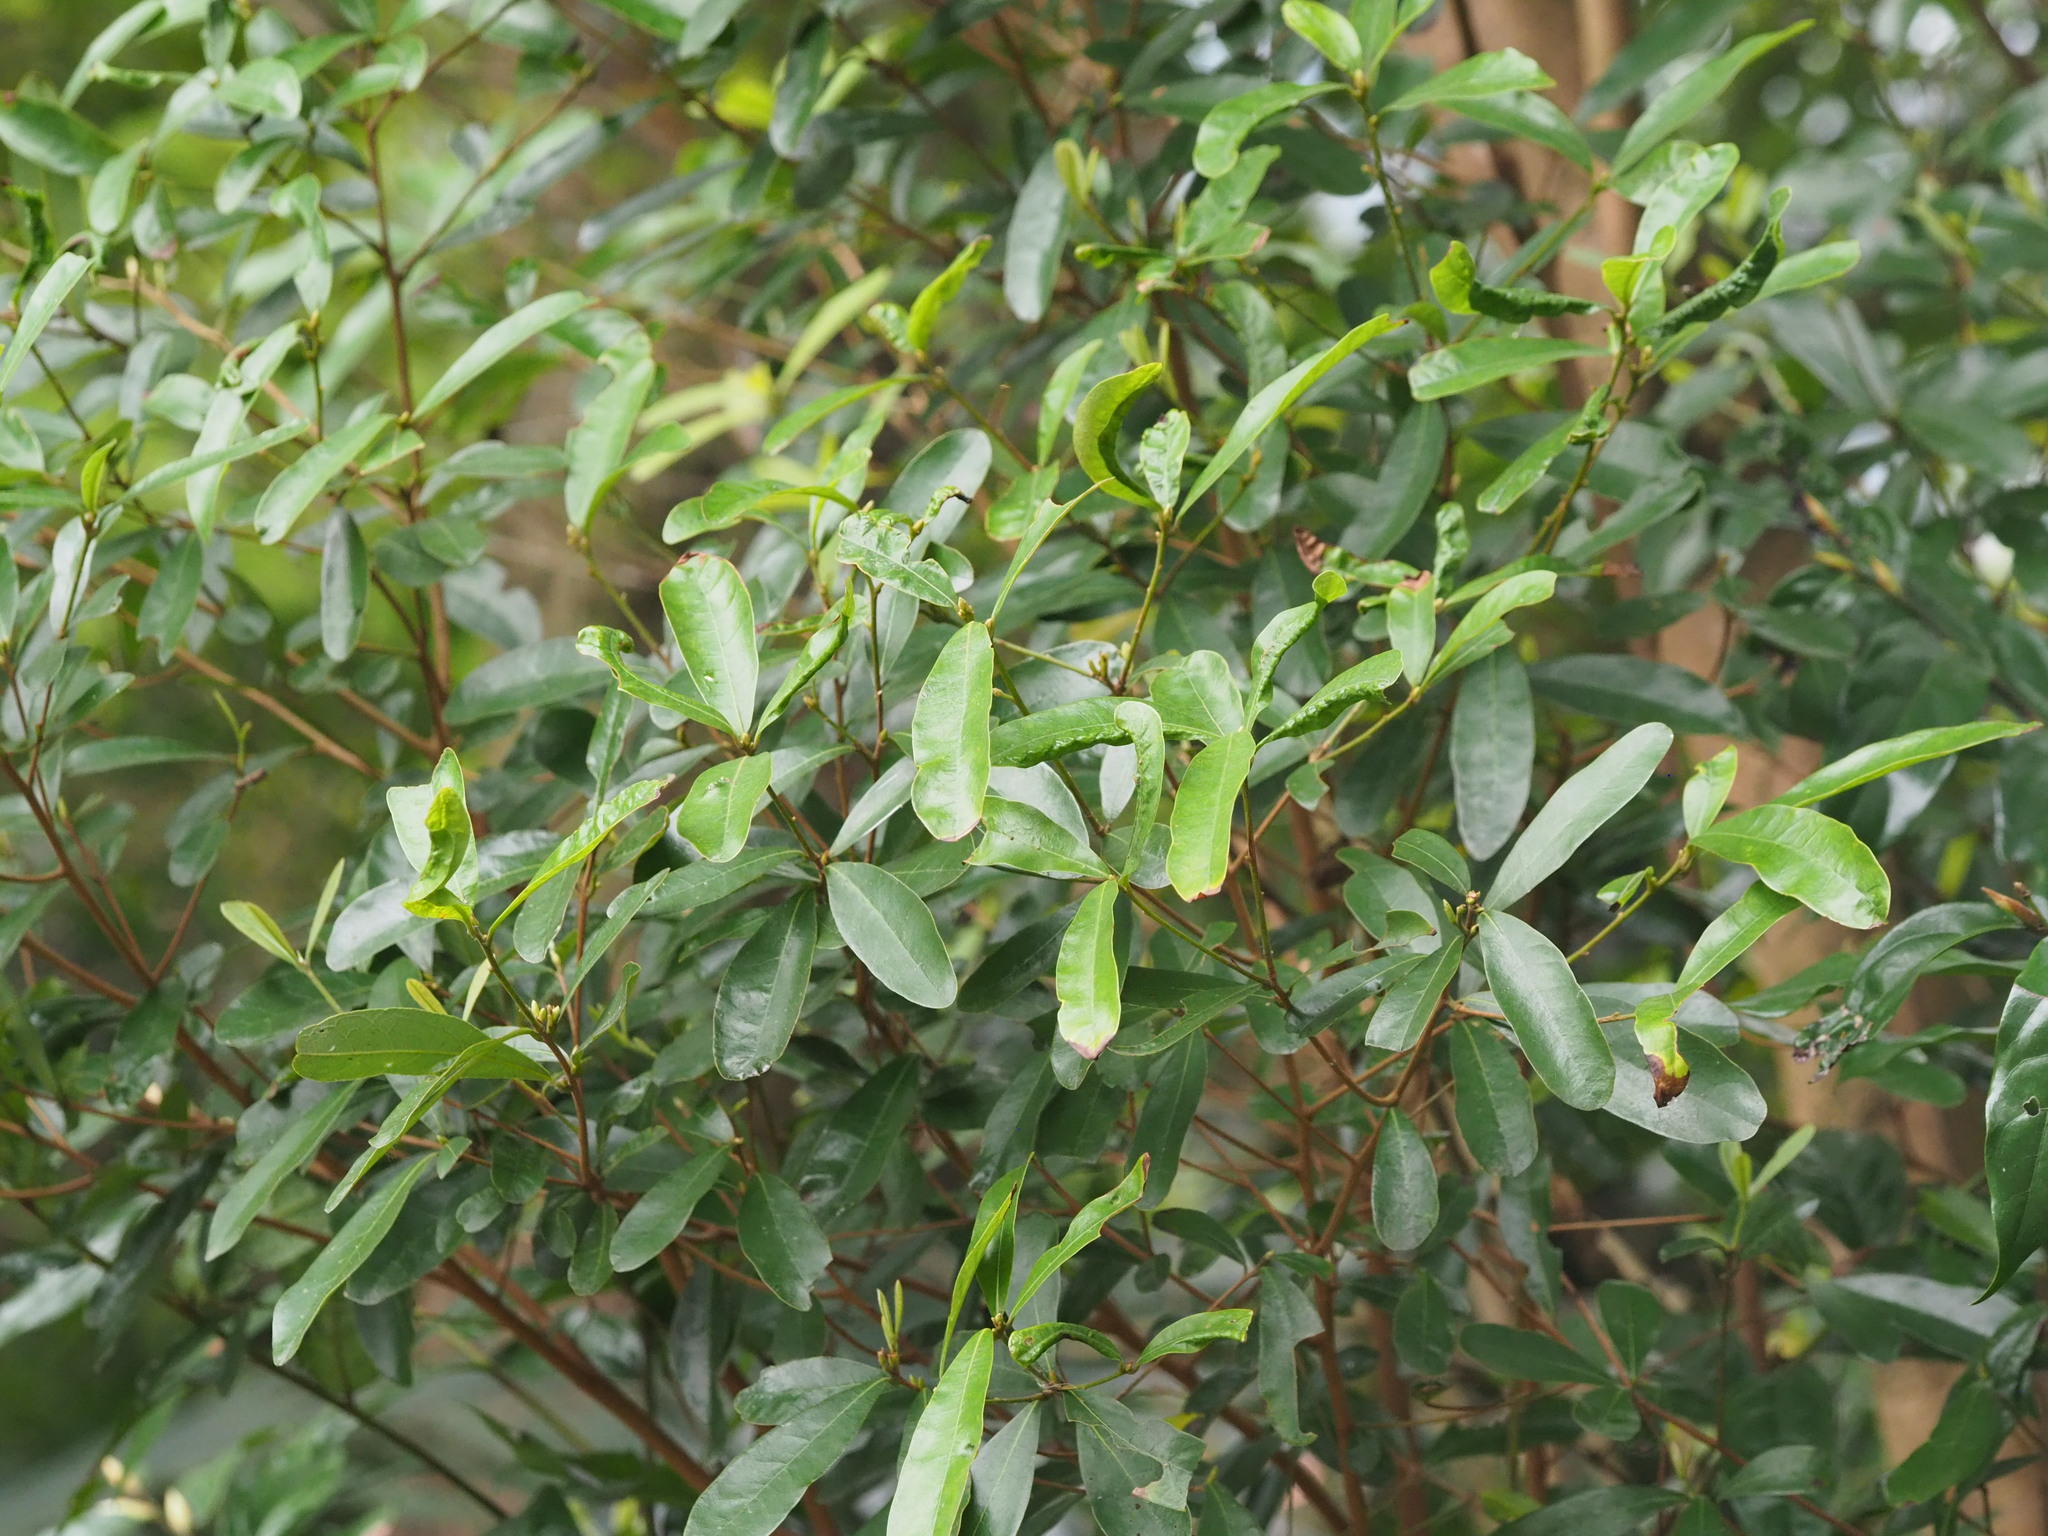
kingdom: Plantae
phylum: Tracheophyta
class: Magnoliopsida
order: Laurales
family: Lauraceae
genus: Litsea
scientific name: Litsea hypophaea
